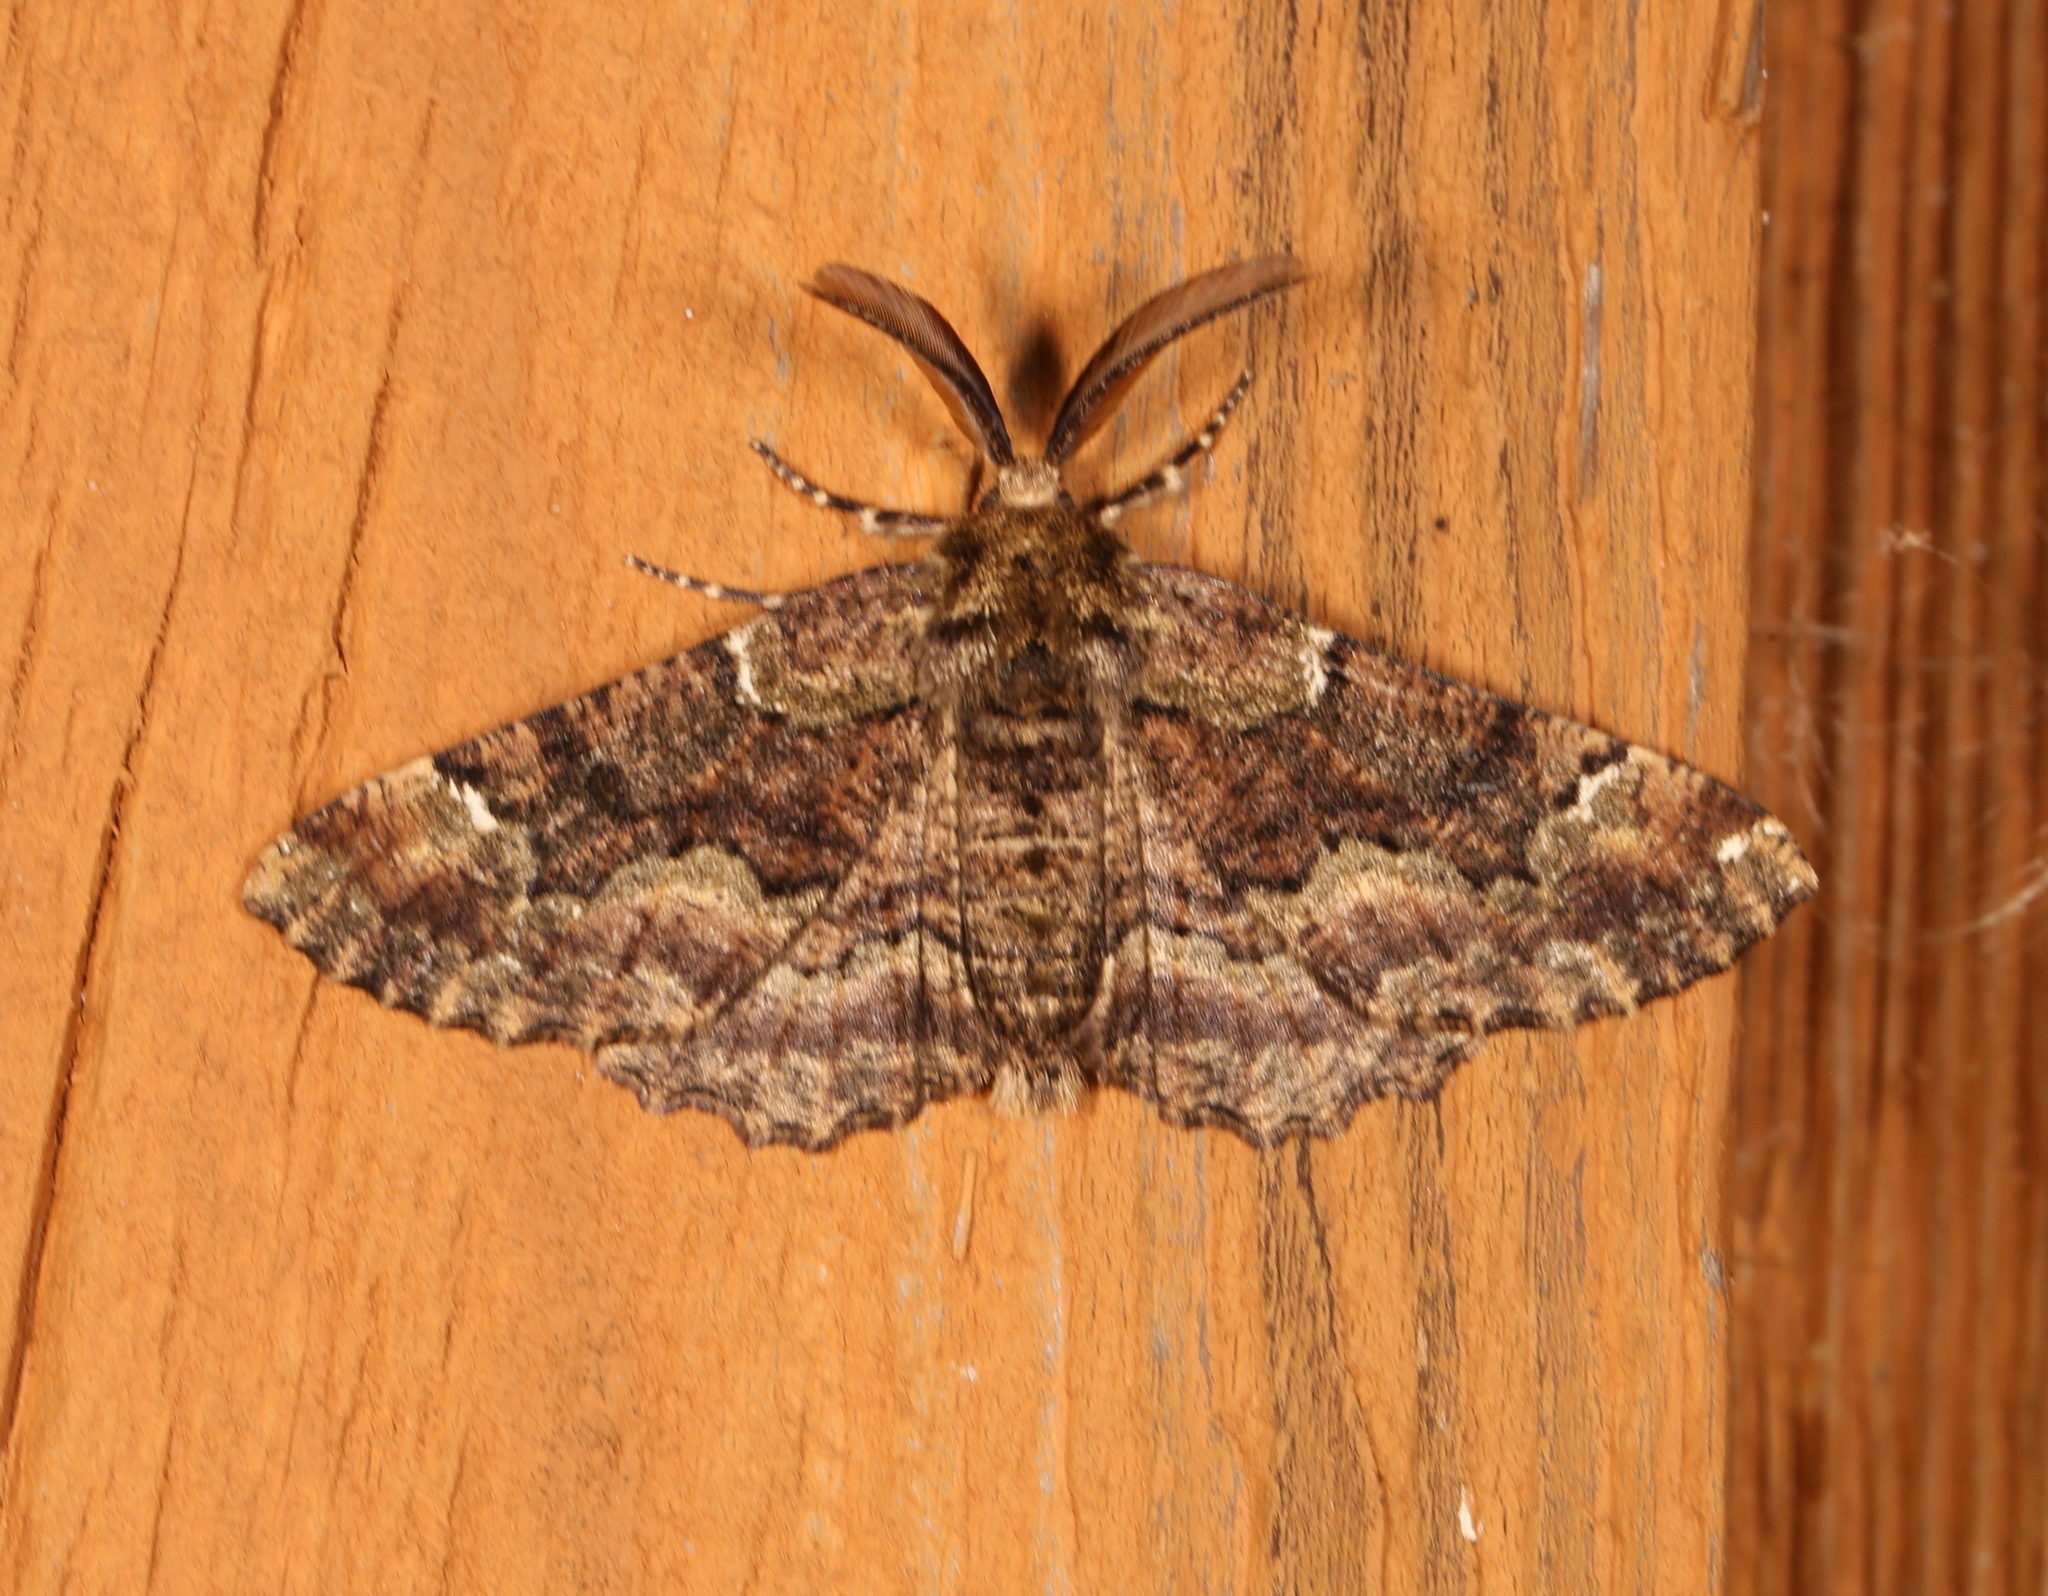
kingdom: Animalia
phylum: Arthropoda
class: Insecta
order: Lepidoptera
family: Geometridae
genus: Phaeoura
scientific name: Phaeoura quernaria
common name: Oak beauty
